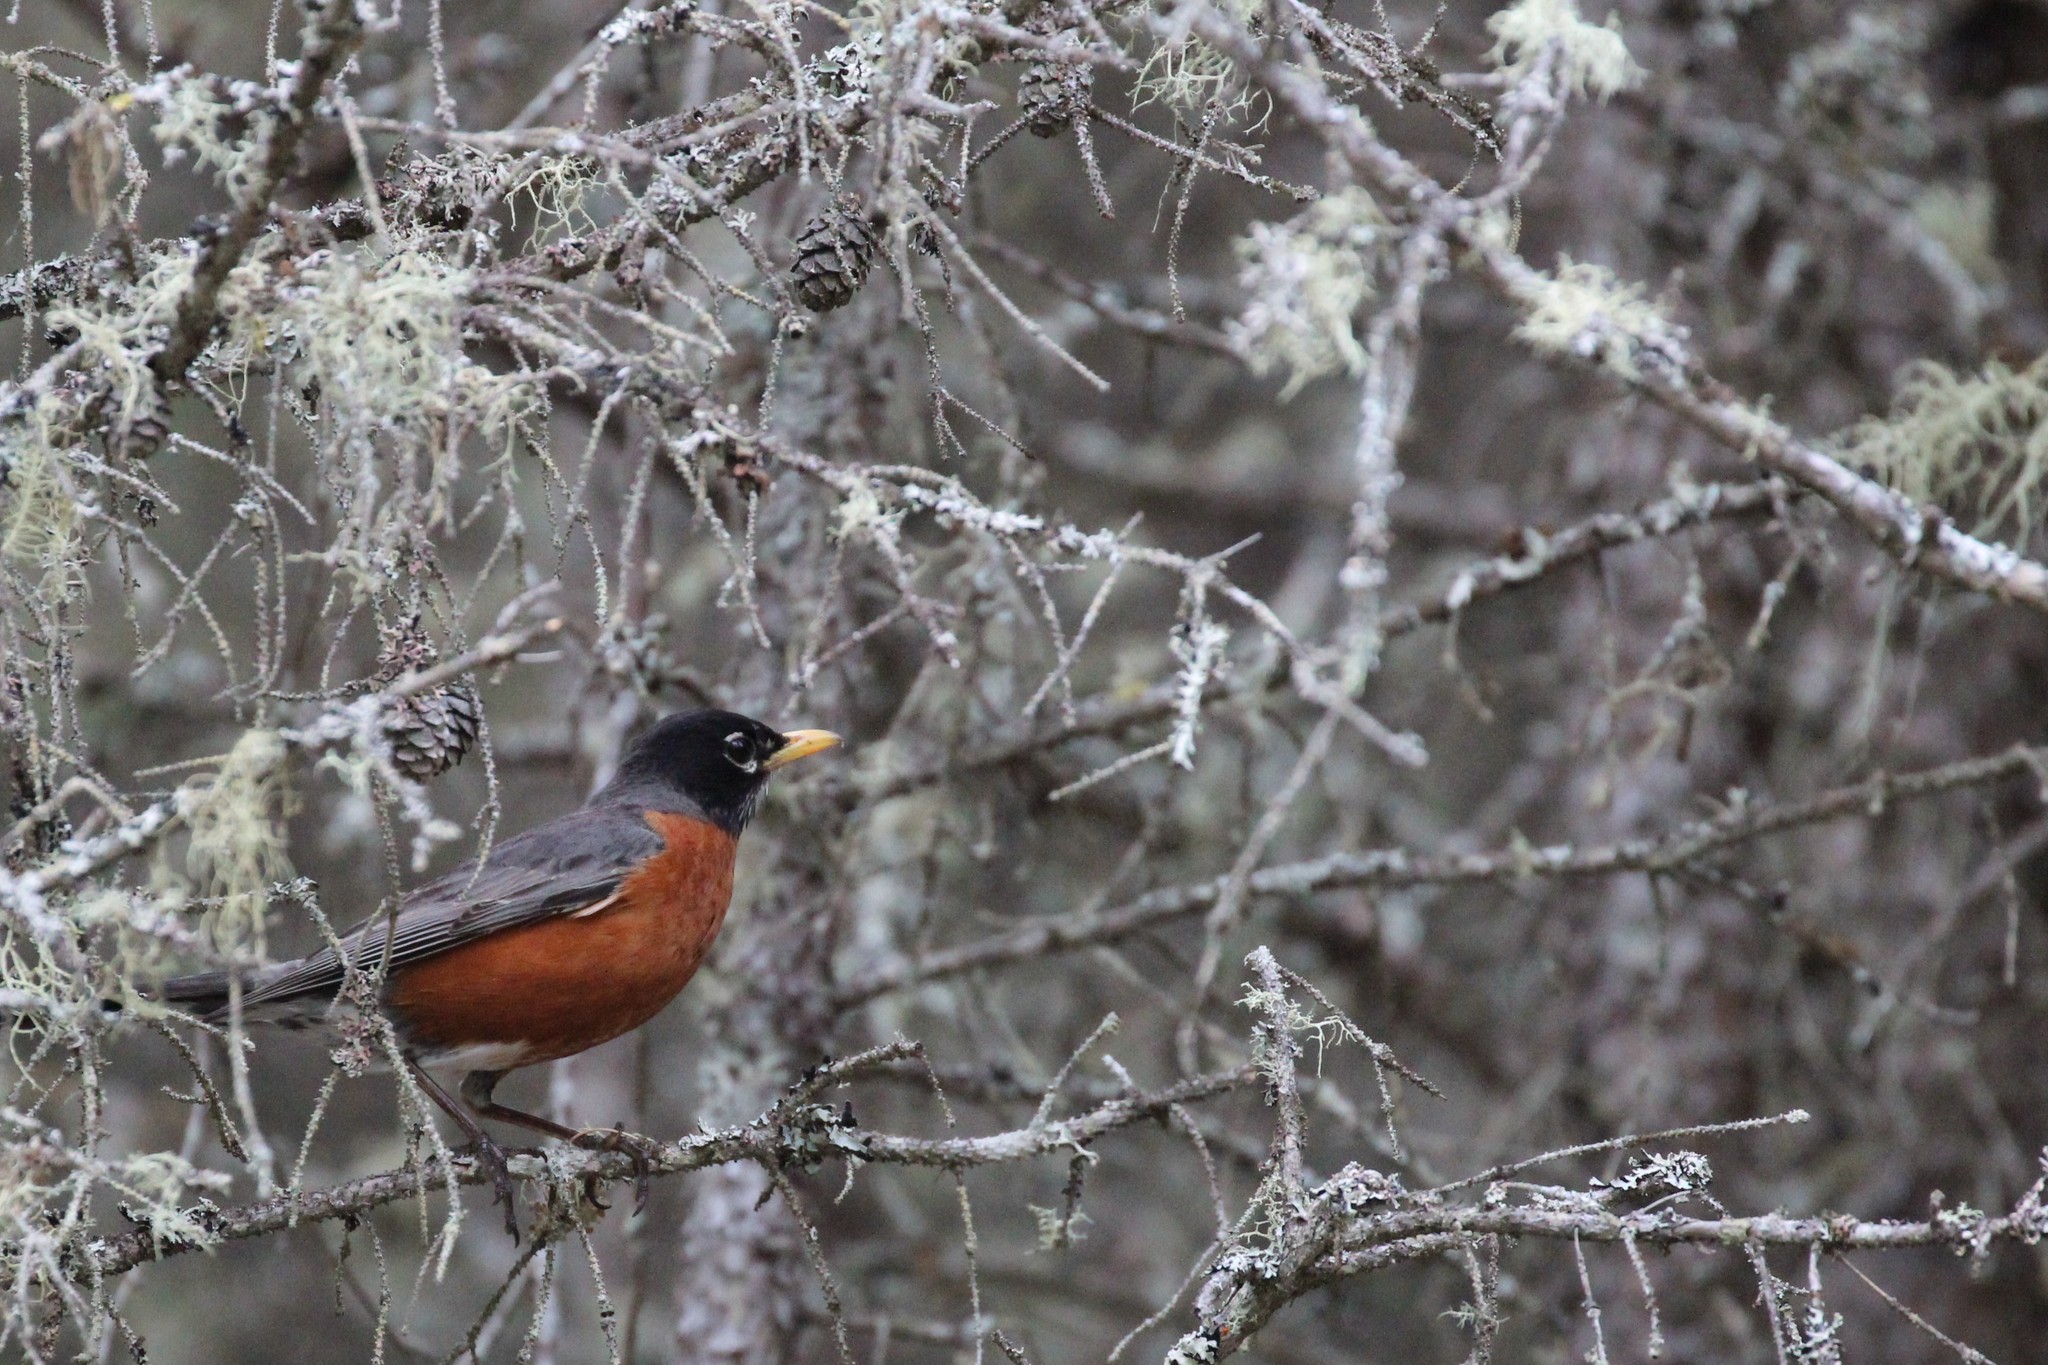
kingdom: Animalia
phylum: Chordata
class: Aves
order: Passeriformes
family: Turdidae
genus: Turdus
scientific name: Turdus migratorius
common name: American robin
